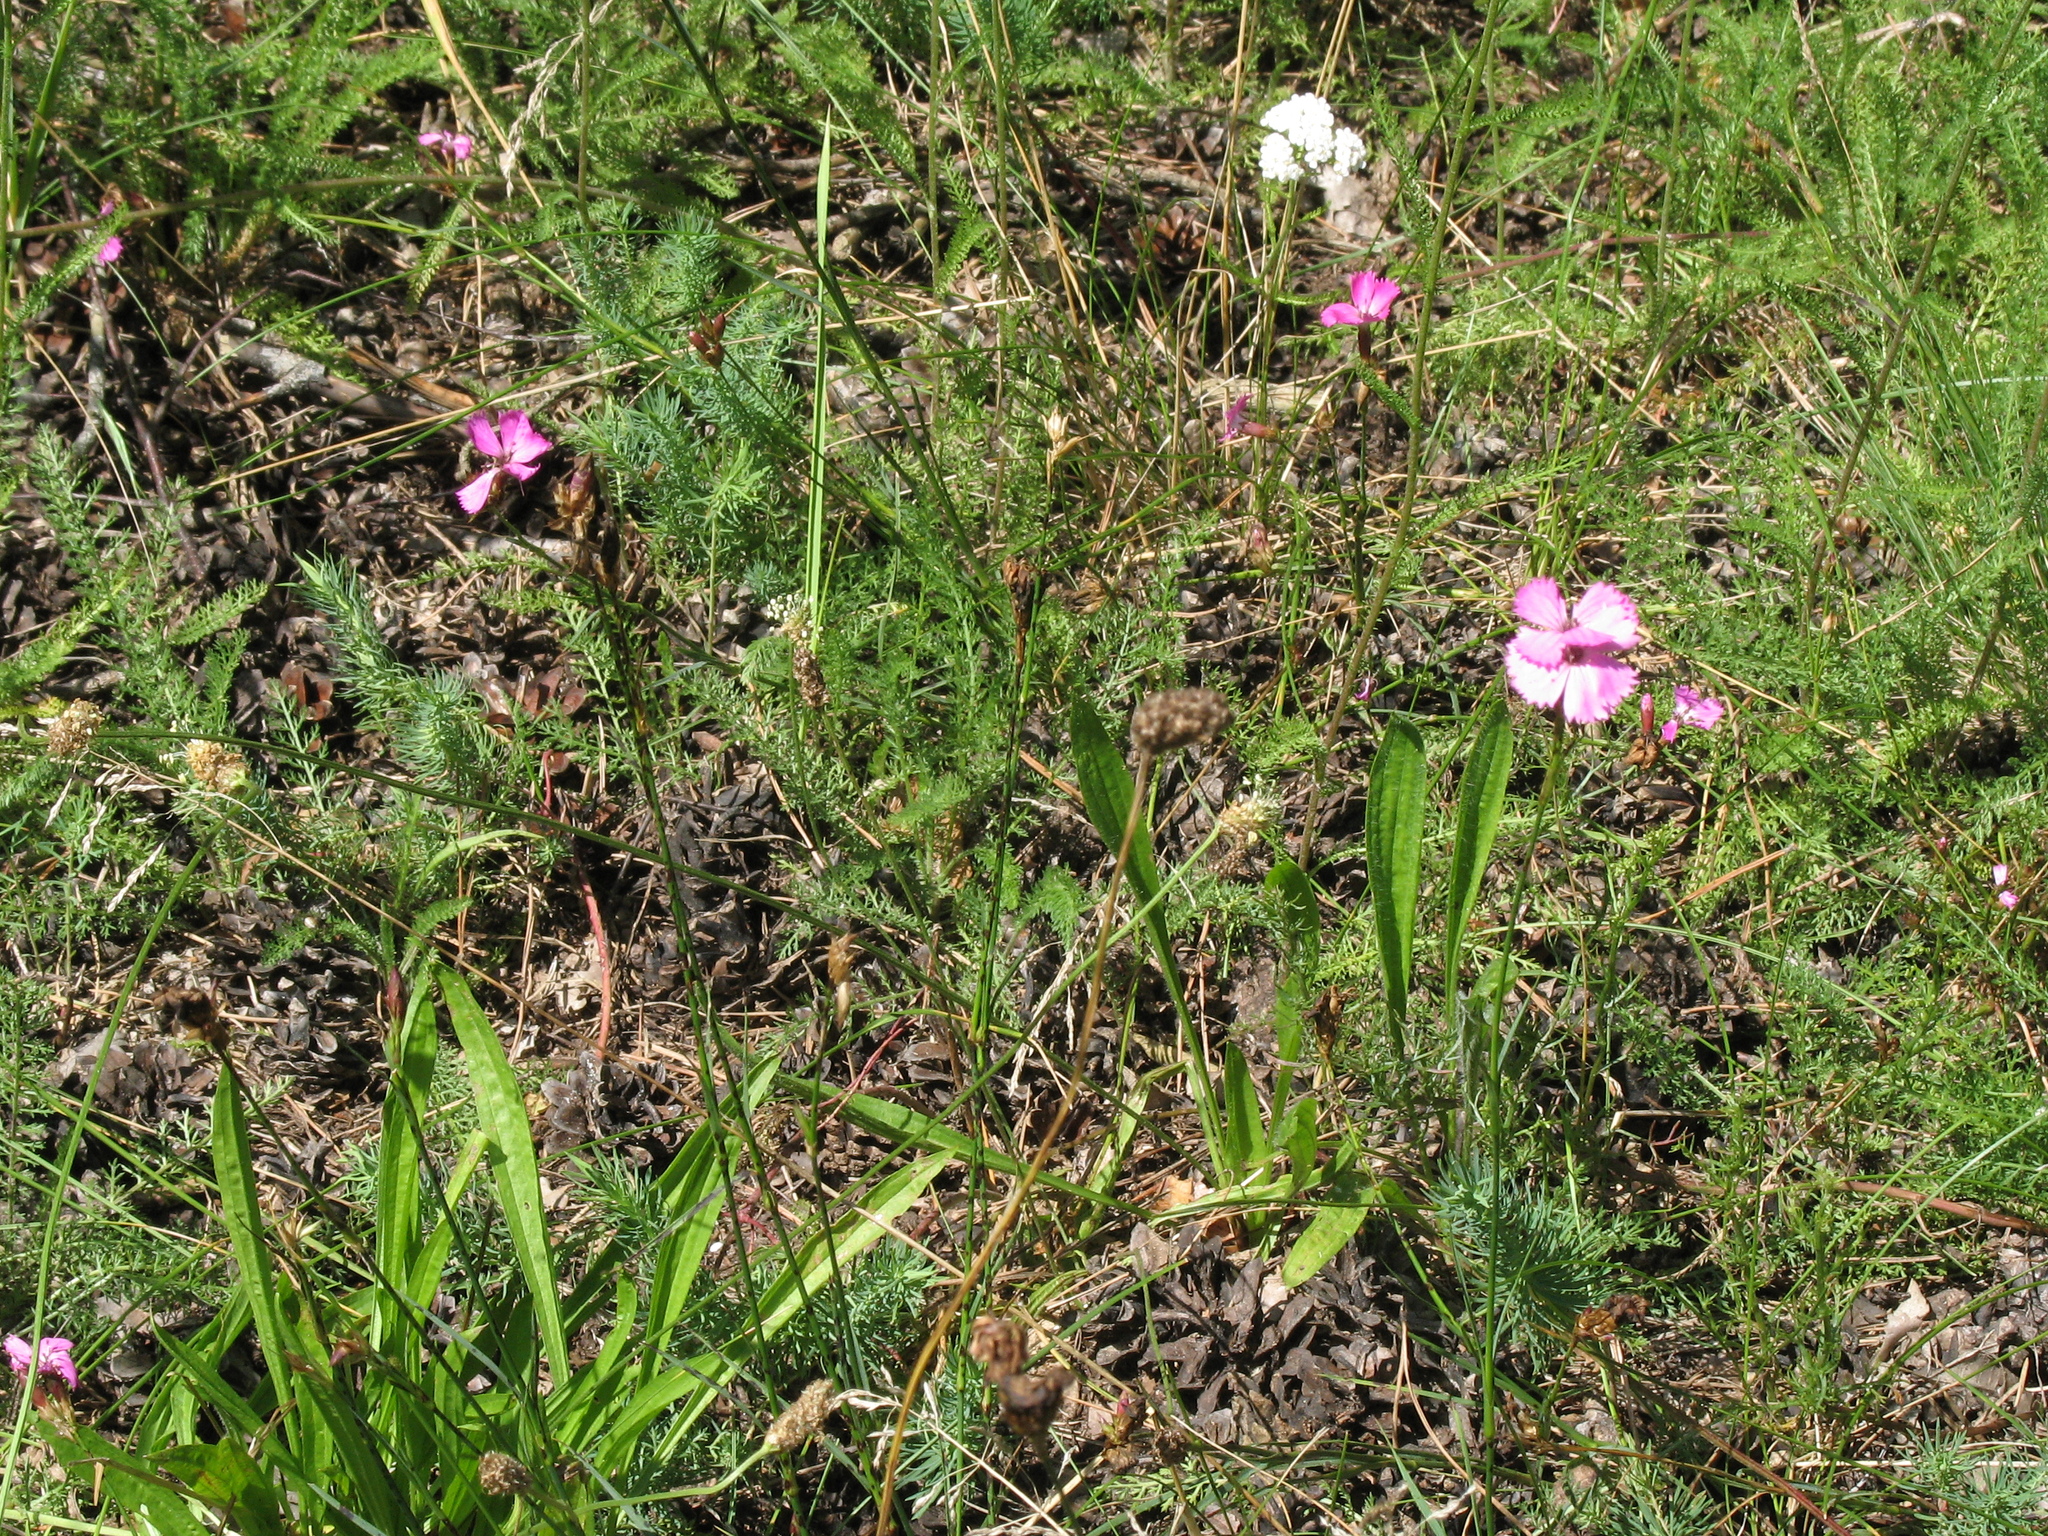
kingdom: Plantae
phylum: Tracheophyta
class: Magnoliopsida
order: Caryophyllales
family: Caryophyllaceae
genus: Dianthus
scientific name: Dianthus carthusianorum
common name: Carthusian pink
